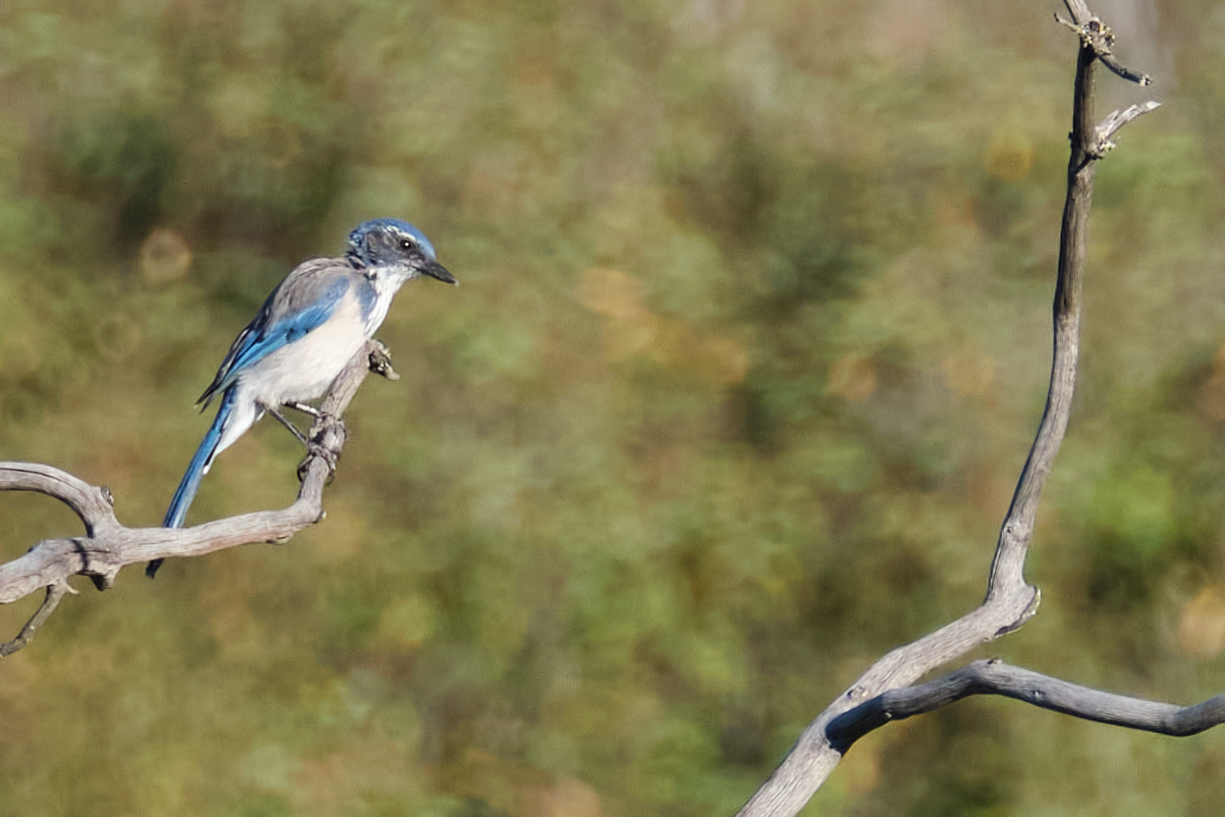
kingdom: Animalia
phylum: Chordata
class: Aves
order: Passeriformes
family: Corvidae
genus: Aphelocoma
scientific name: Aphelocoma californica
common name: California scrub-jay
